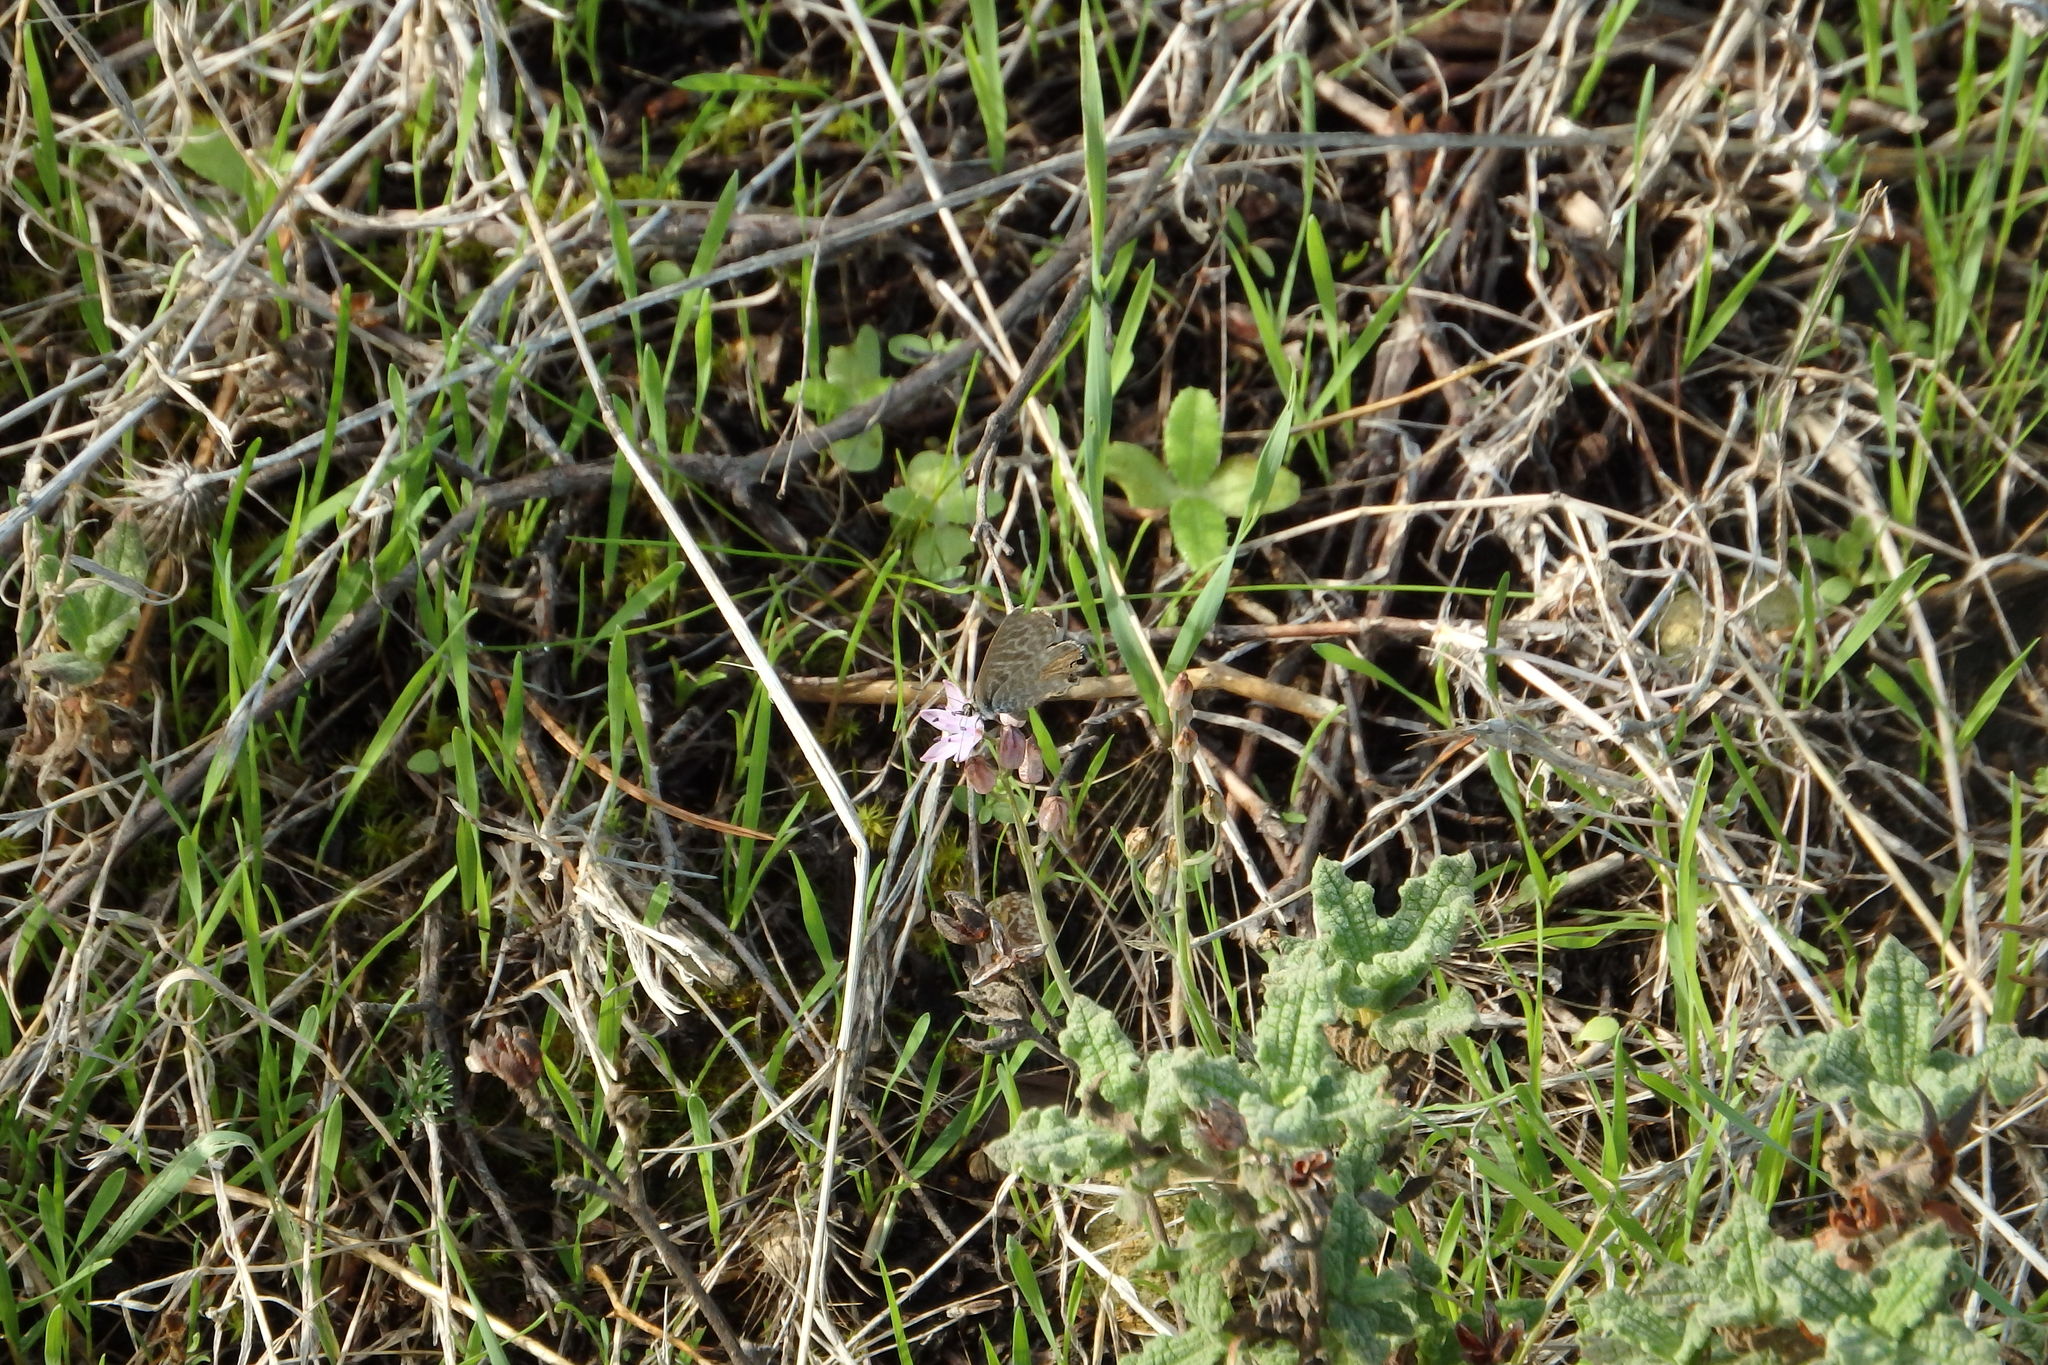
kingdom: Animalia
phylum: Arthropoda
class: Insecta
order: Lepidoptera
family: Lycaenidae
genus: Leptotes
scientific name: Leptotes pirithous
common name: Lang's short-tailed blue
